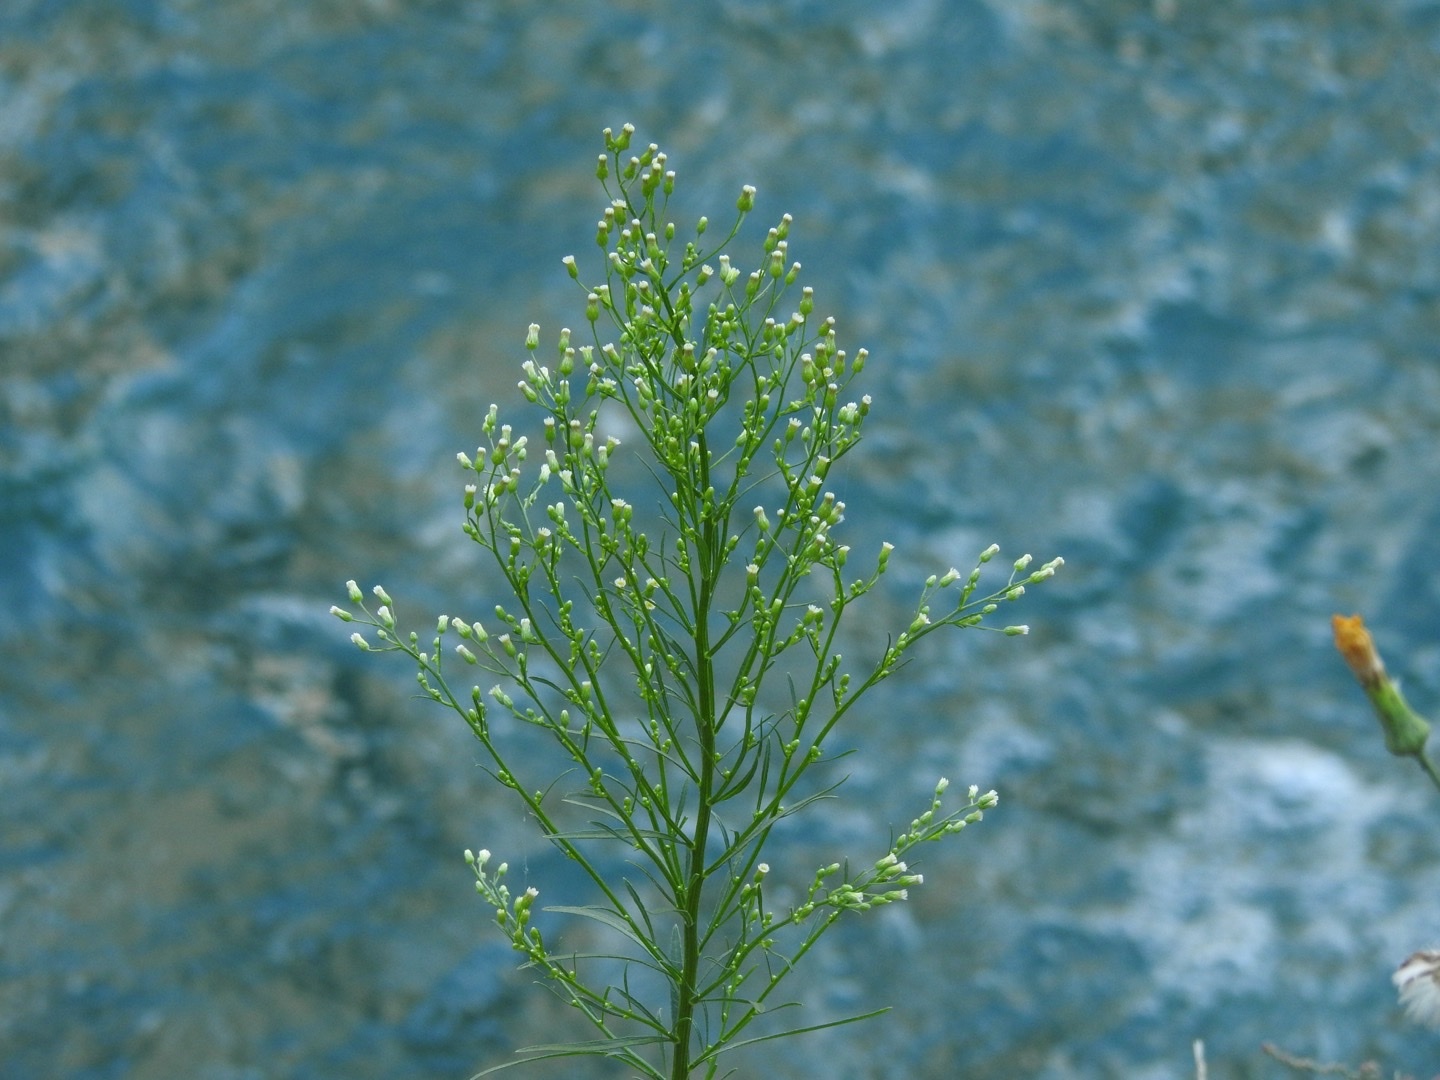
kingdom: Plantae
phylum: Tracheophyta
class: Magnoliopsida
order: Asterales
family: Asteraceae
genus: Erigeron
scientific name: Erigeron canadensis
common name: Canadian fleabane
